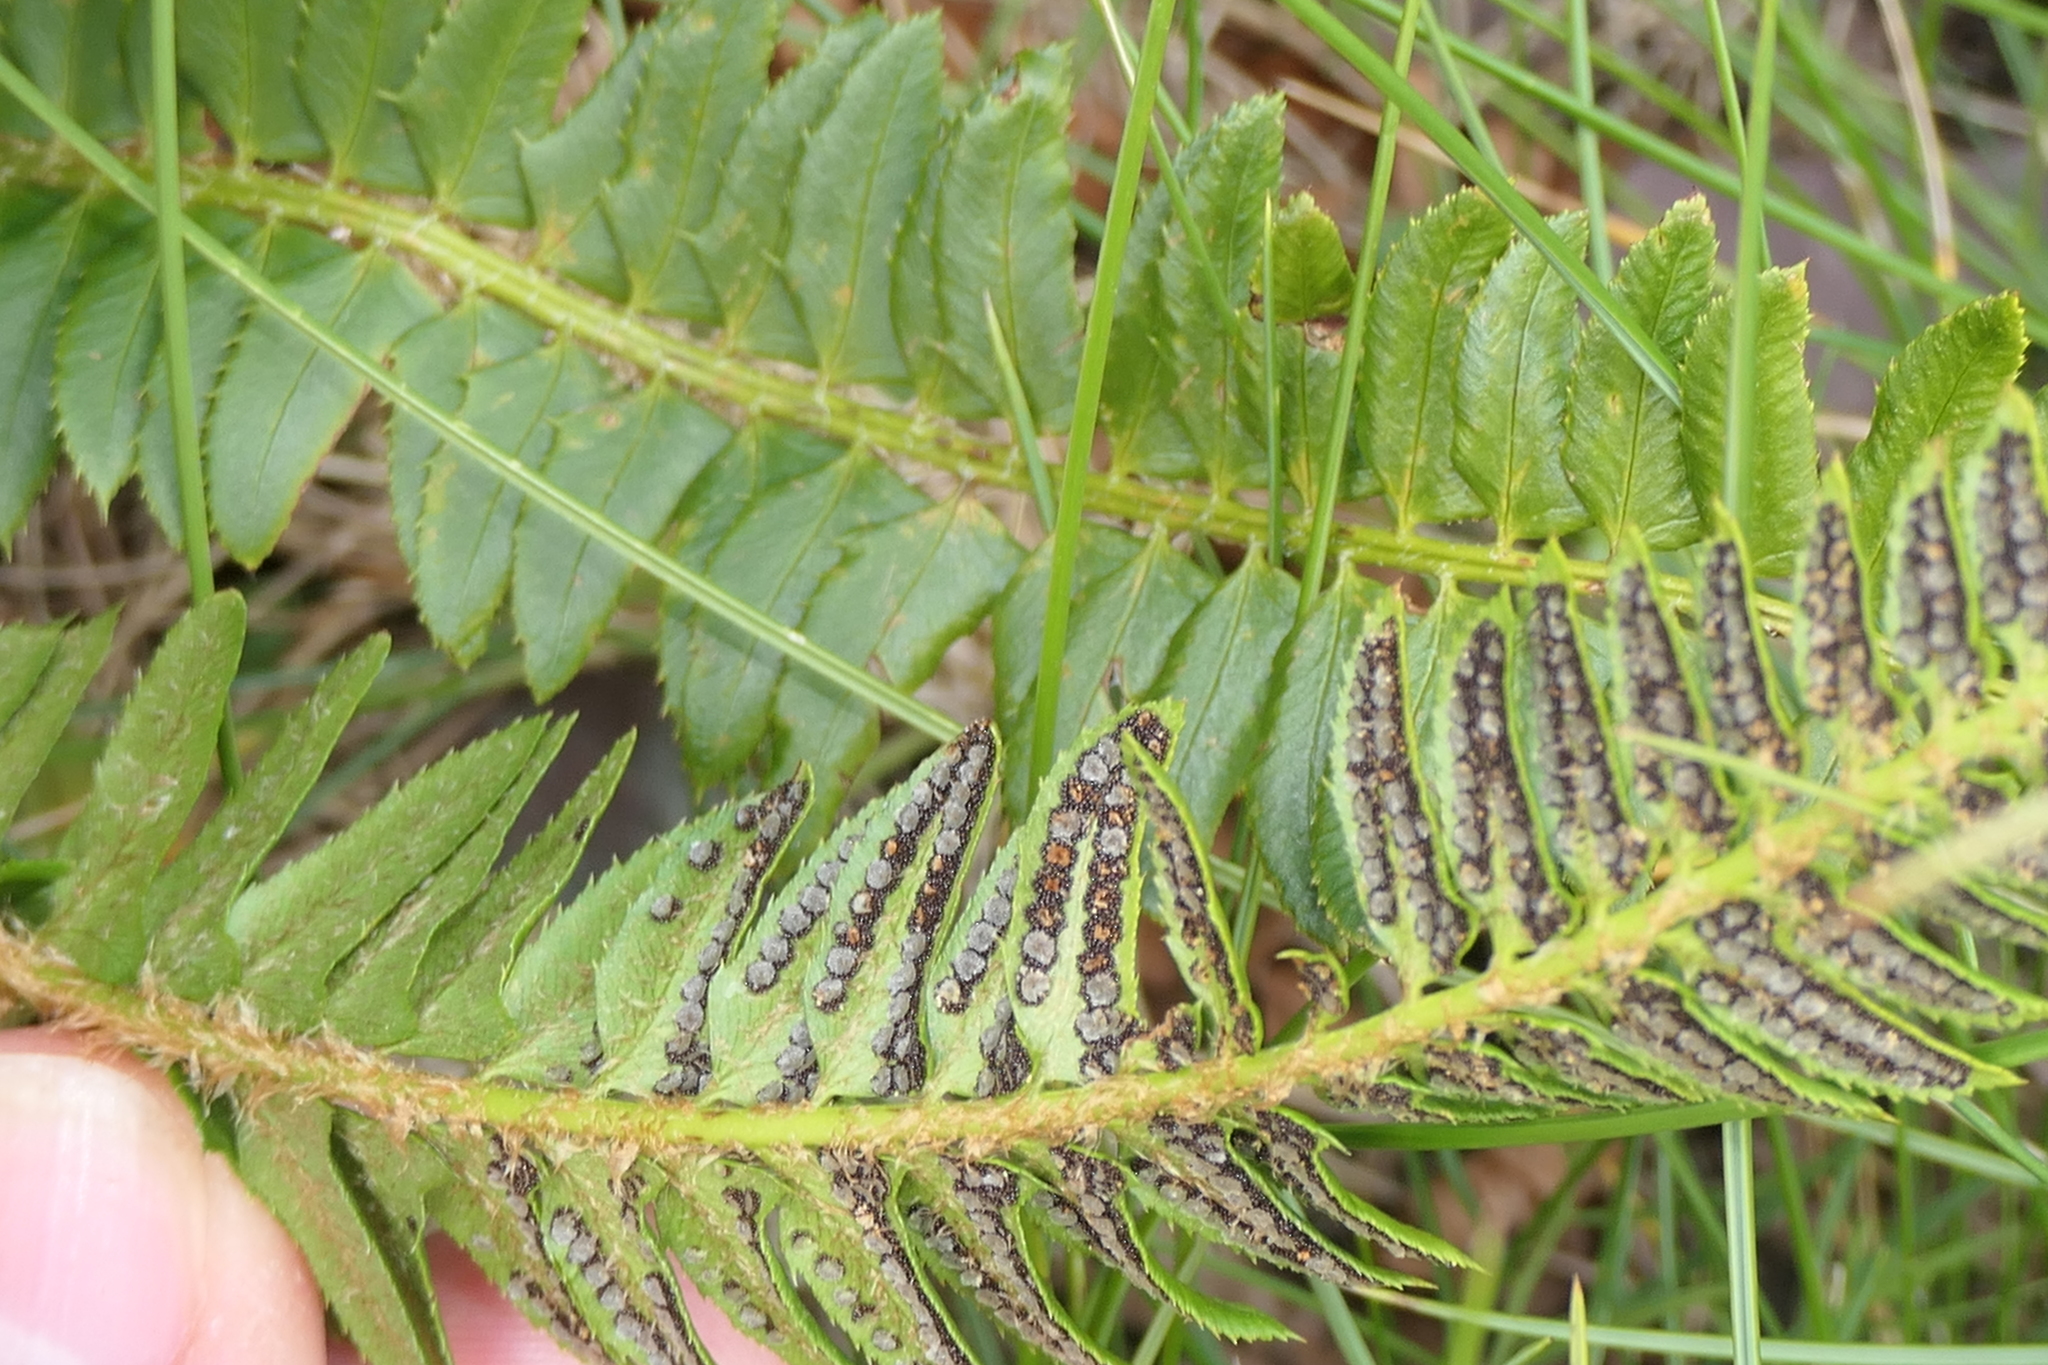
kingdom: Plantae
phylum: Tracheophyta
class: Polypodiopsida
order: Polypodiales
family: Dryopteridaceae
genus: Polystichum
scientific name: Polystichum lonchitis
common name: Holly fern
